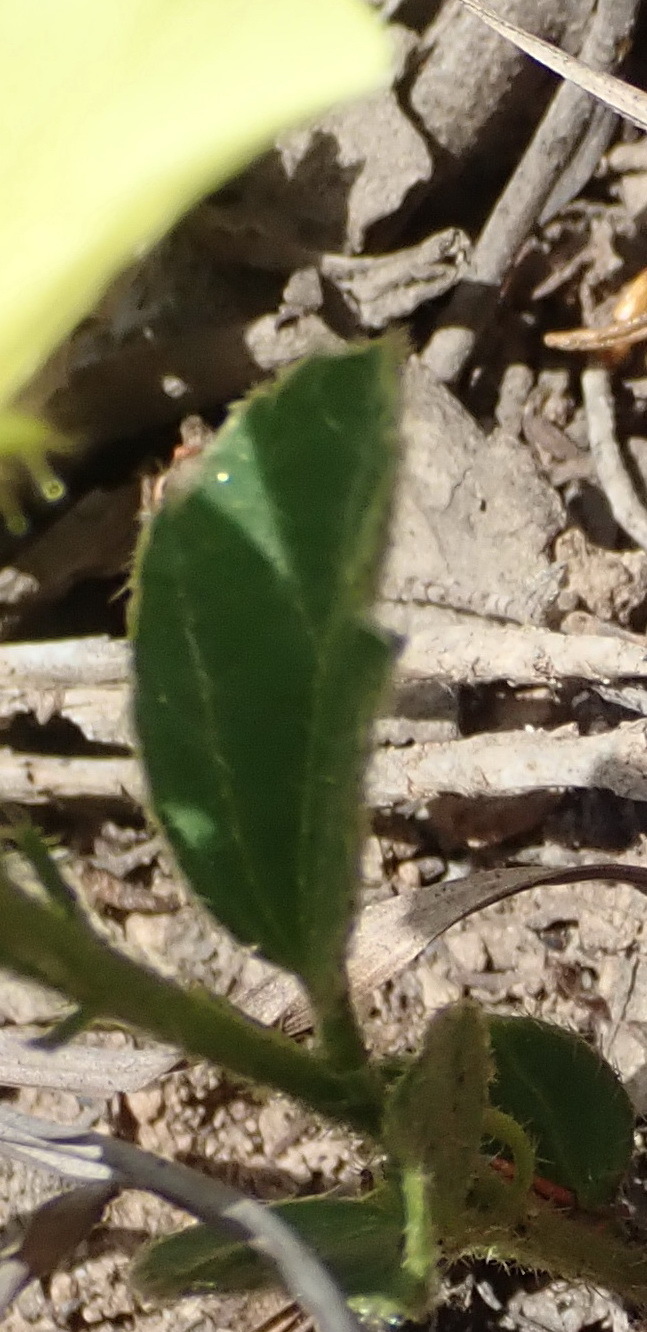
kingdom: Plantae
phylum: Tracheophyta
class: Magnoliopsida
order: Malvales
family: Malvaceae
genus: Hibiscus
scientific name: Hibiscus aethiopicus
